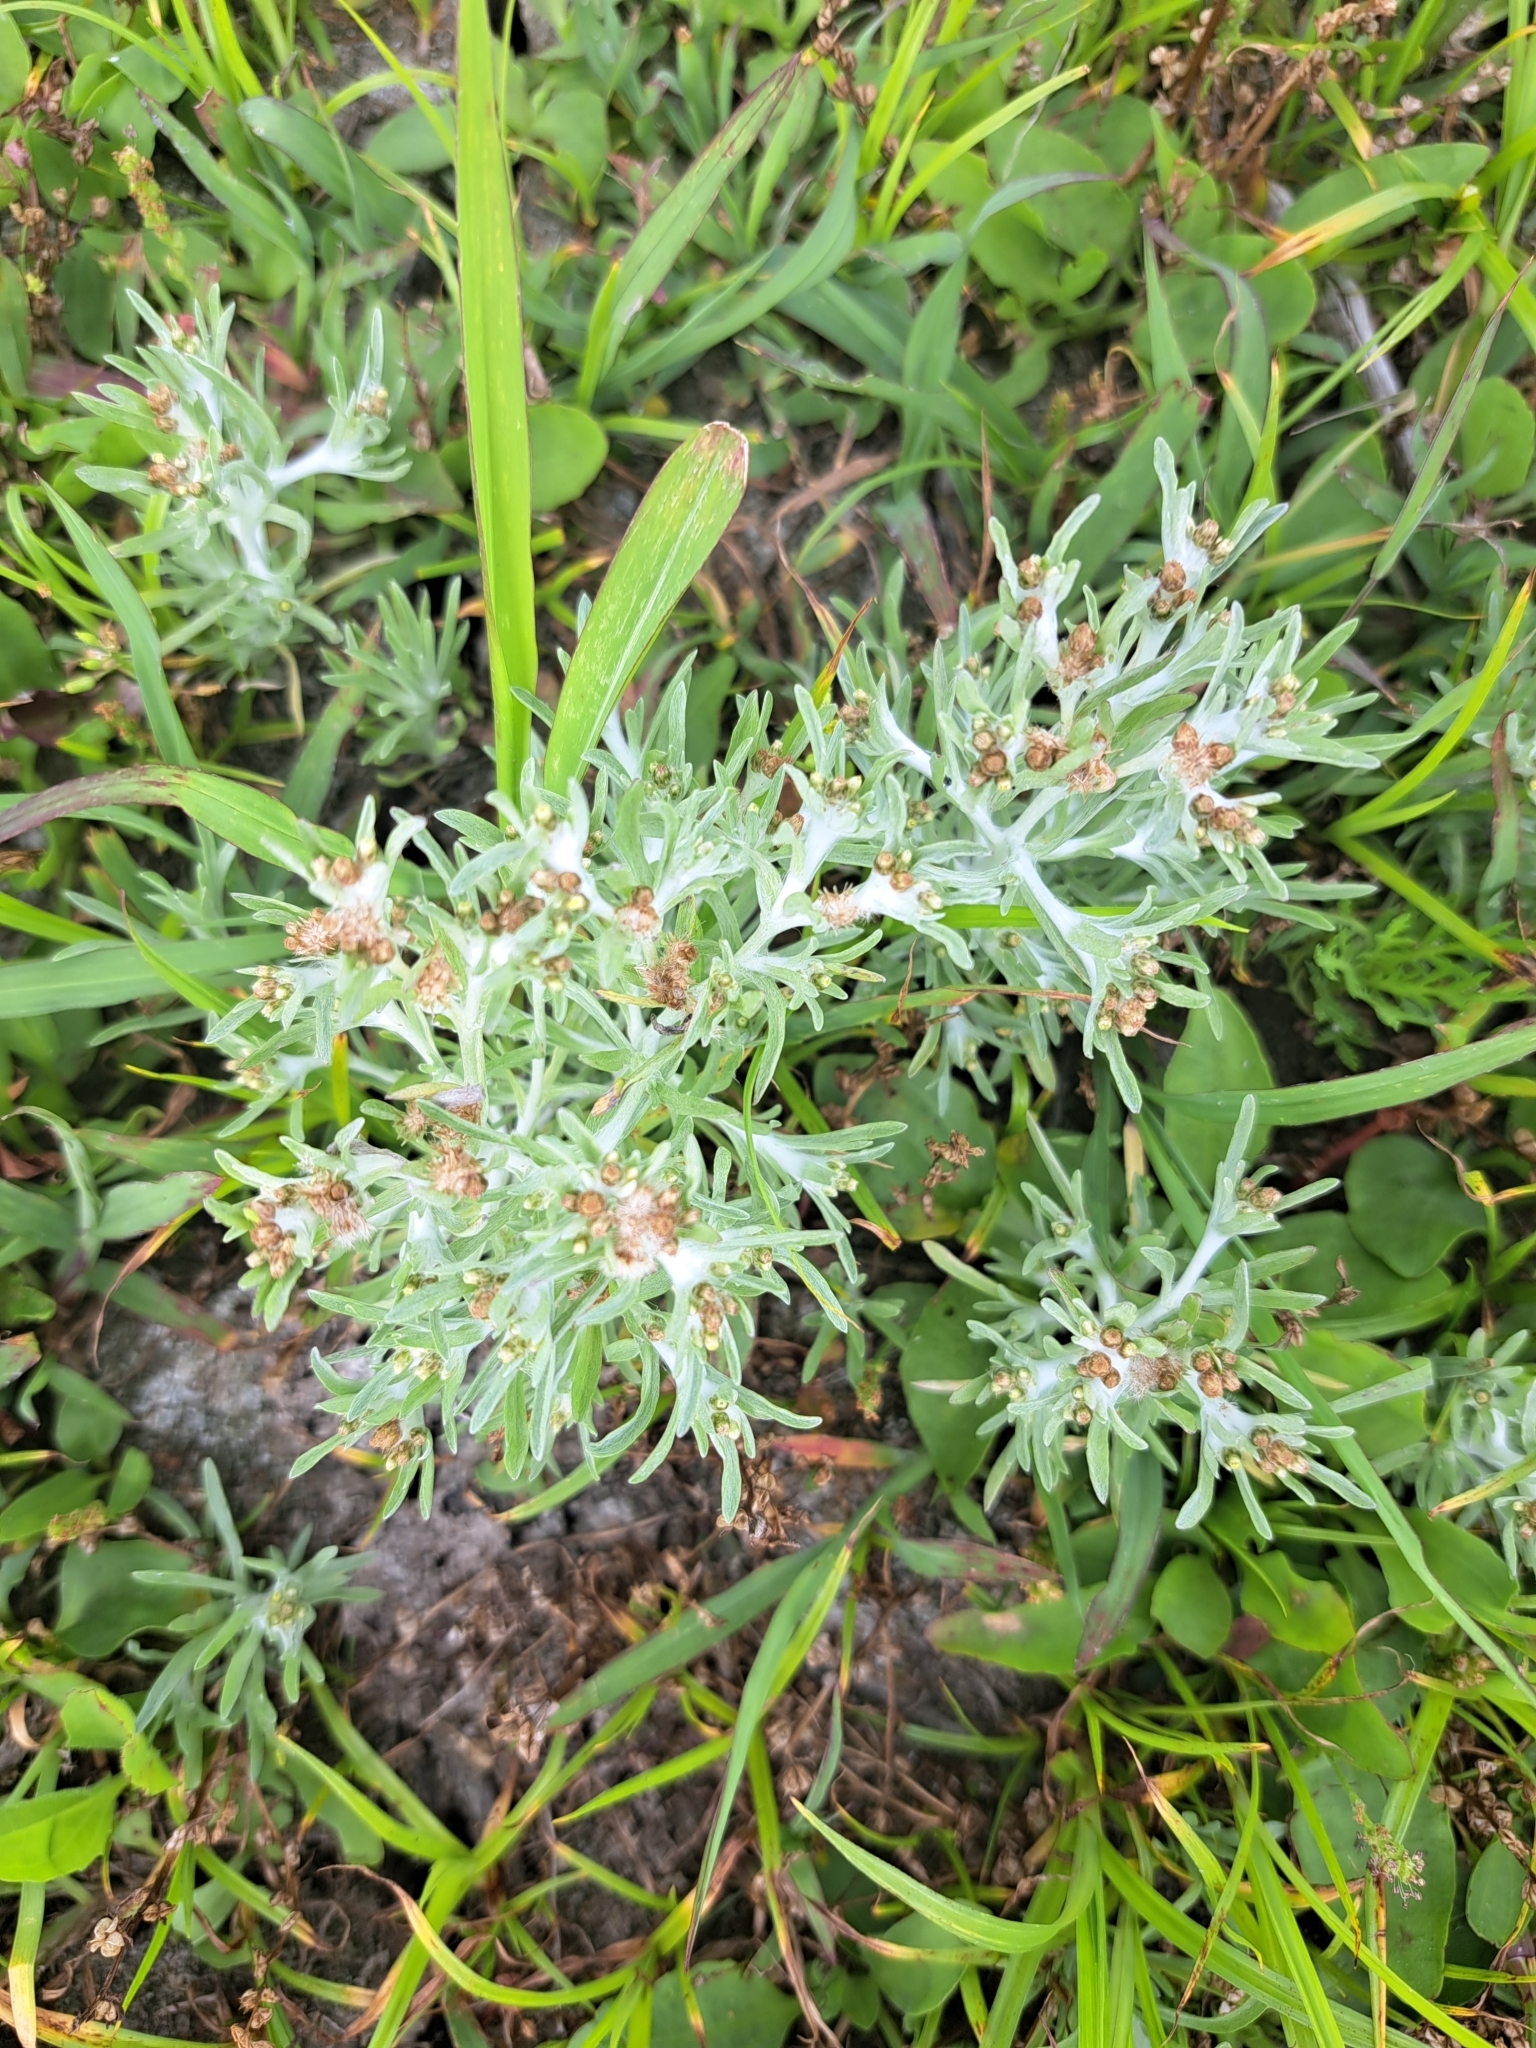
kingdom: Plantae
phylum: Tracheophyta
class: Magnoliopsida
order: Asterales
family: Asteraceae
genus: Gnaphalium
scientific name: Gnaphalium uliginosum
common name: Marsh cudweed
